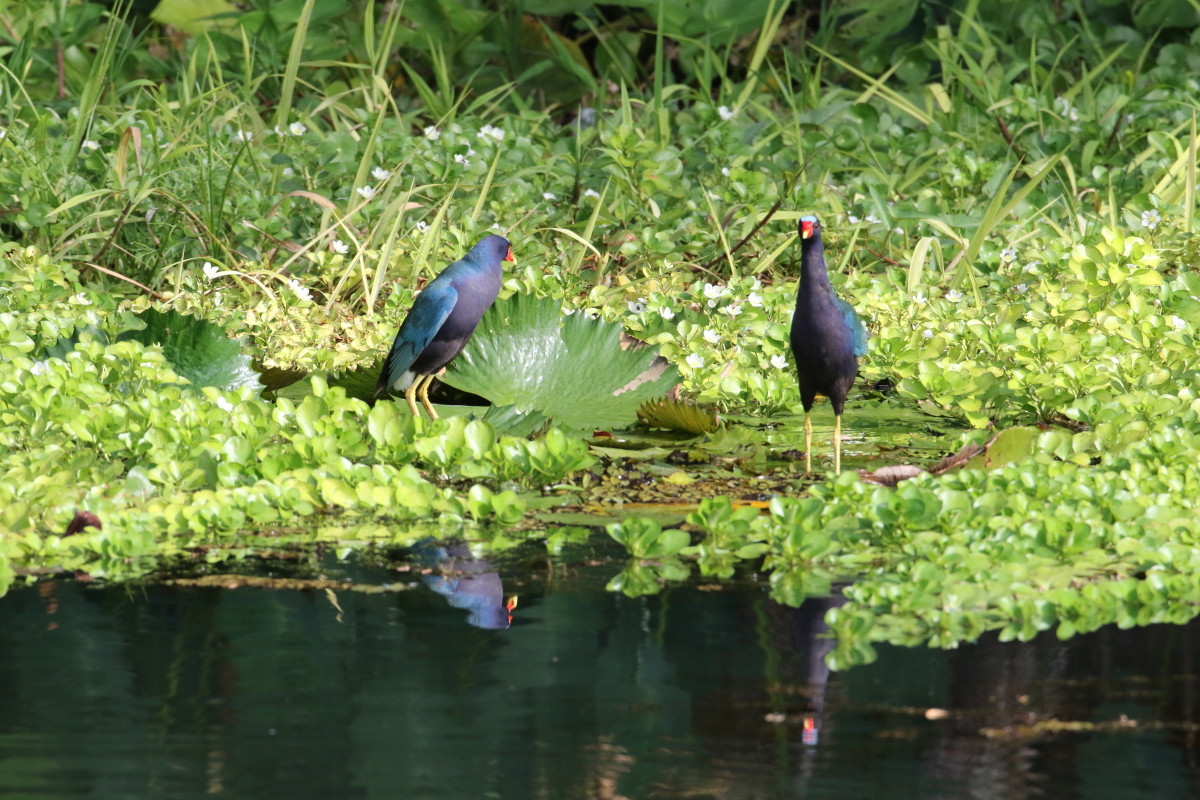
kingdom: Animalia
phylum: Chordata
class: Aves
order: Gruiformes
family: Rallidae
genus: Porphyrio
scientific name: Porphyrio martinica
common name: Purple gallinule
